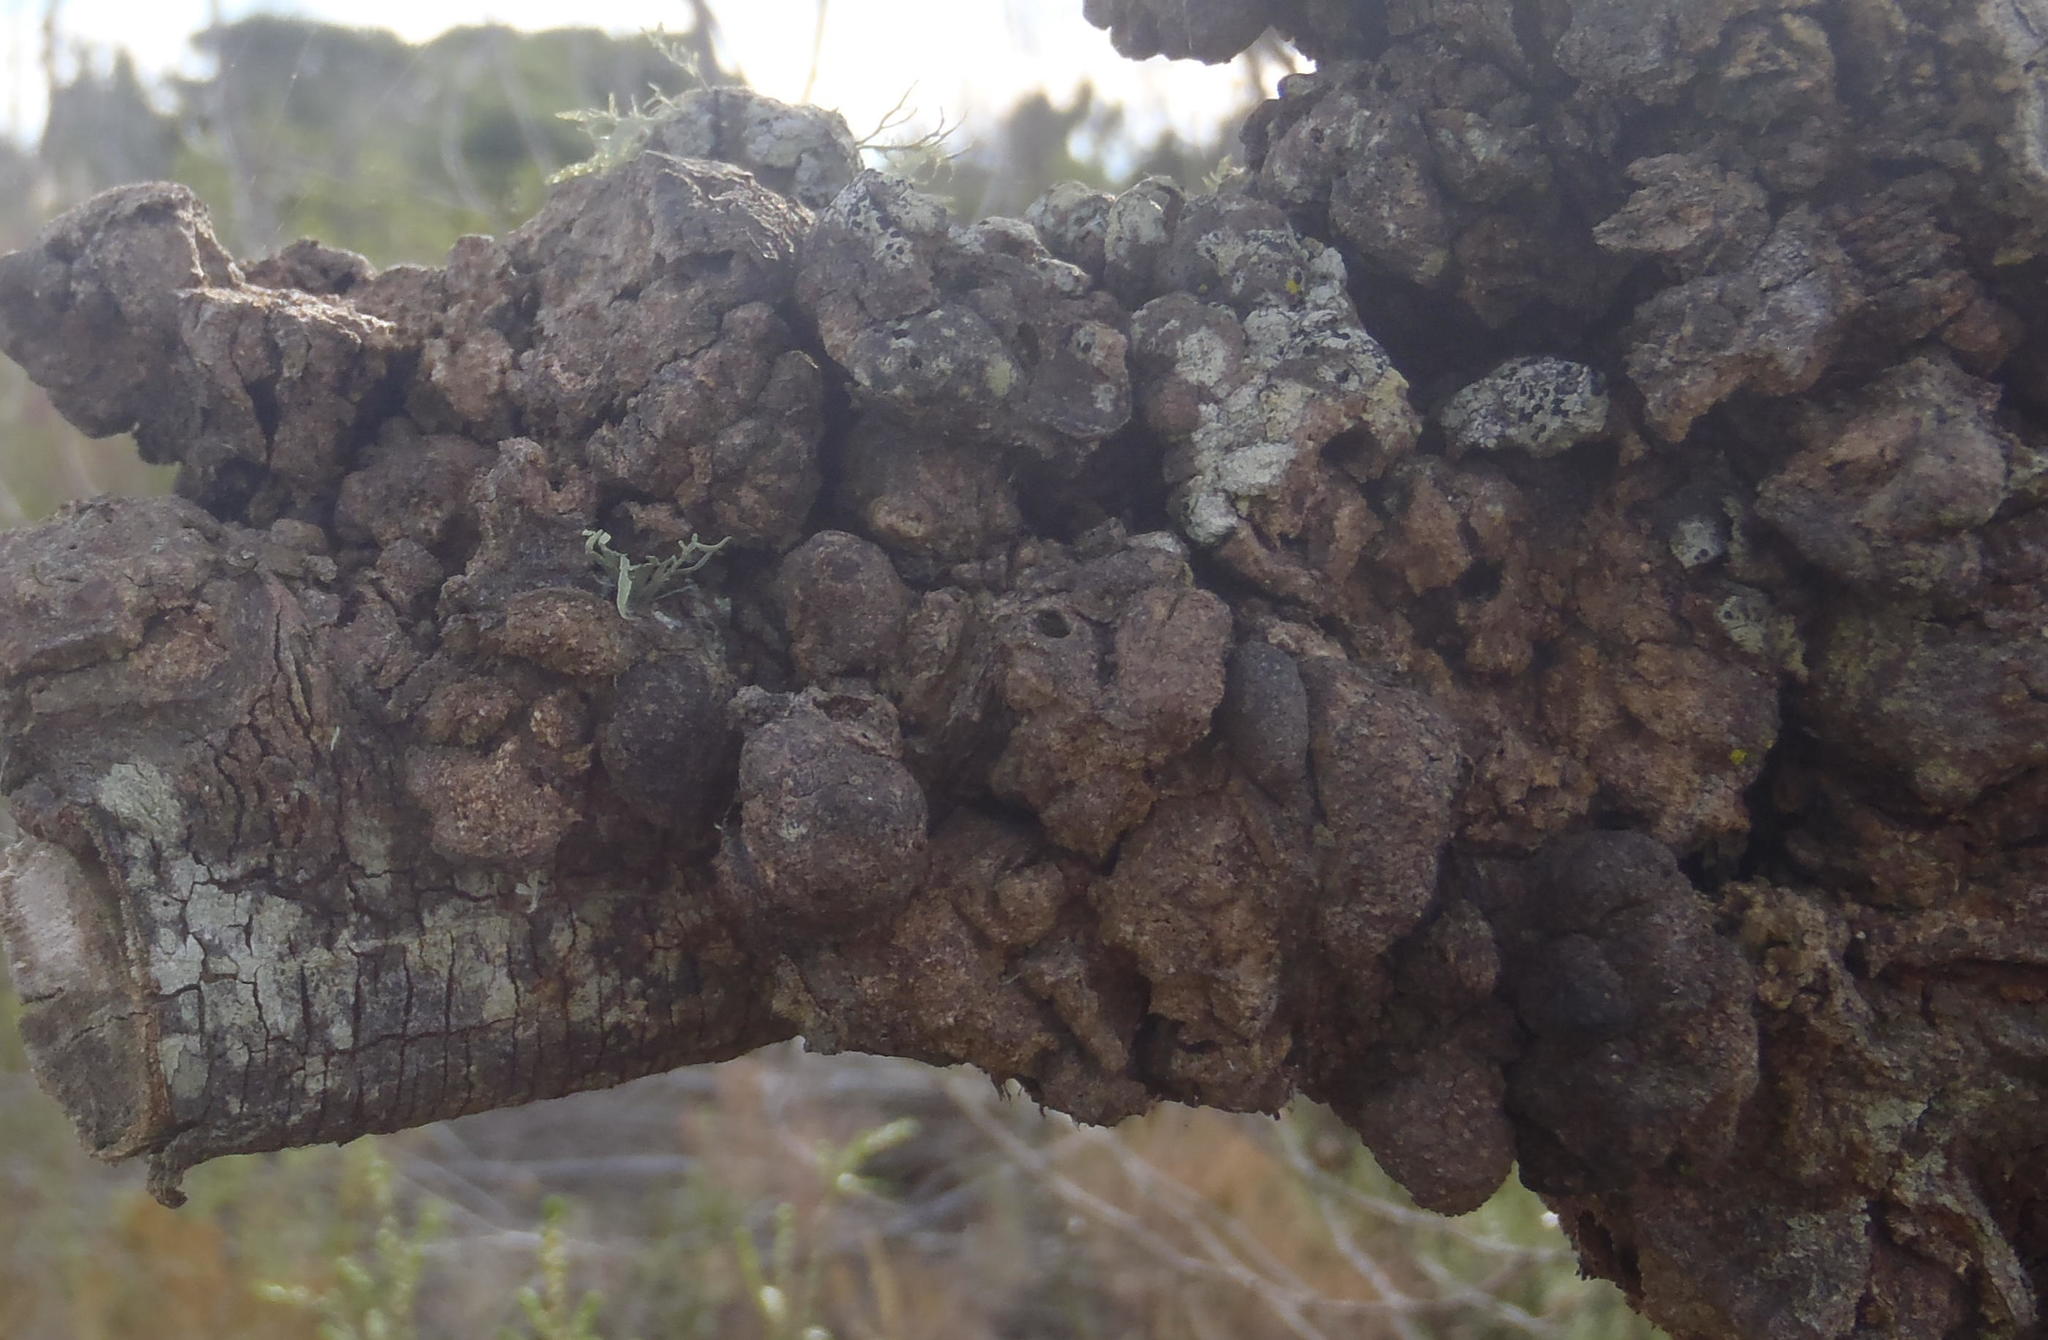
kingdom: Fungi
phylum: Basidiomycota
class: Pucciniomycetes
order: Pucciniales
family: Uromycladiaceae
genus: Uromycladium
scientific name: Uromycladium morrisii
